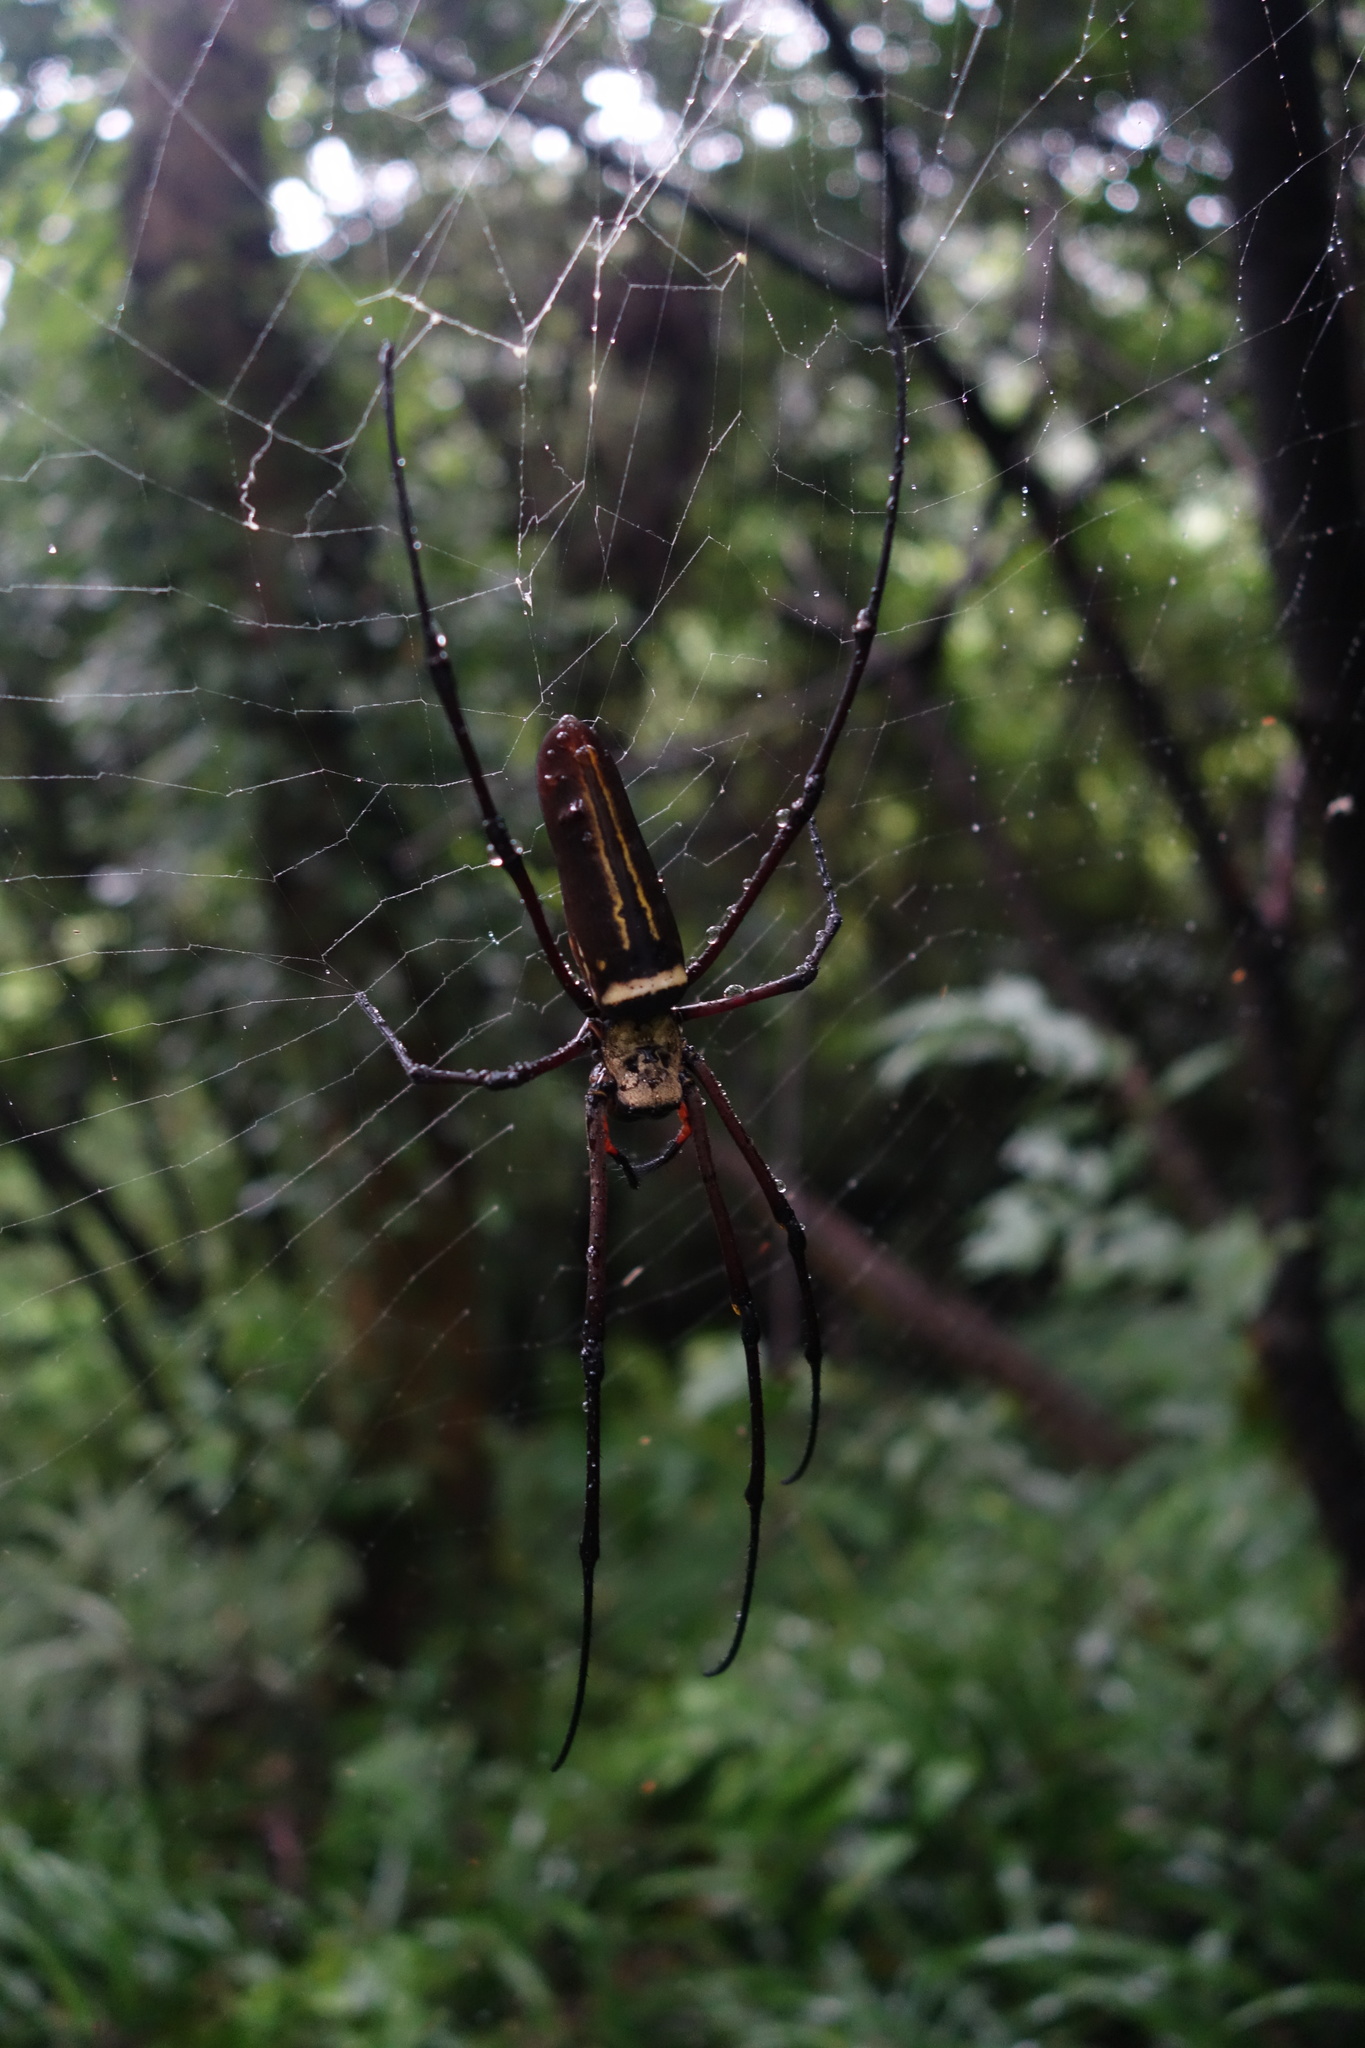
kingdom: Animalia
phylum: Arthropoda
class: Arachnida
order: Araneae
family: Araneidae
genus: Nephila
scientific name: Nephila pilipes
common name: Giant golden orb weaver
